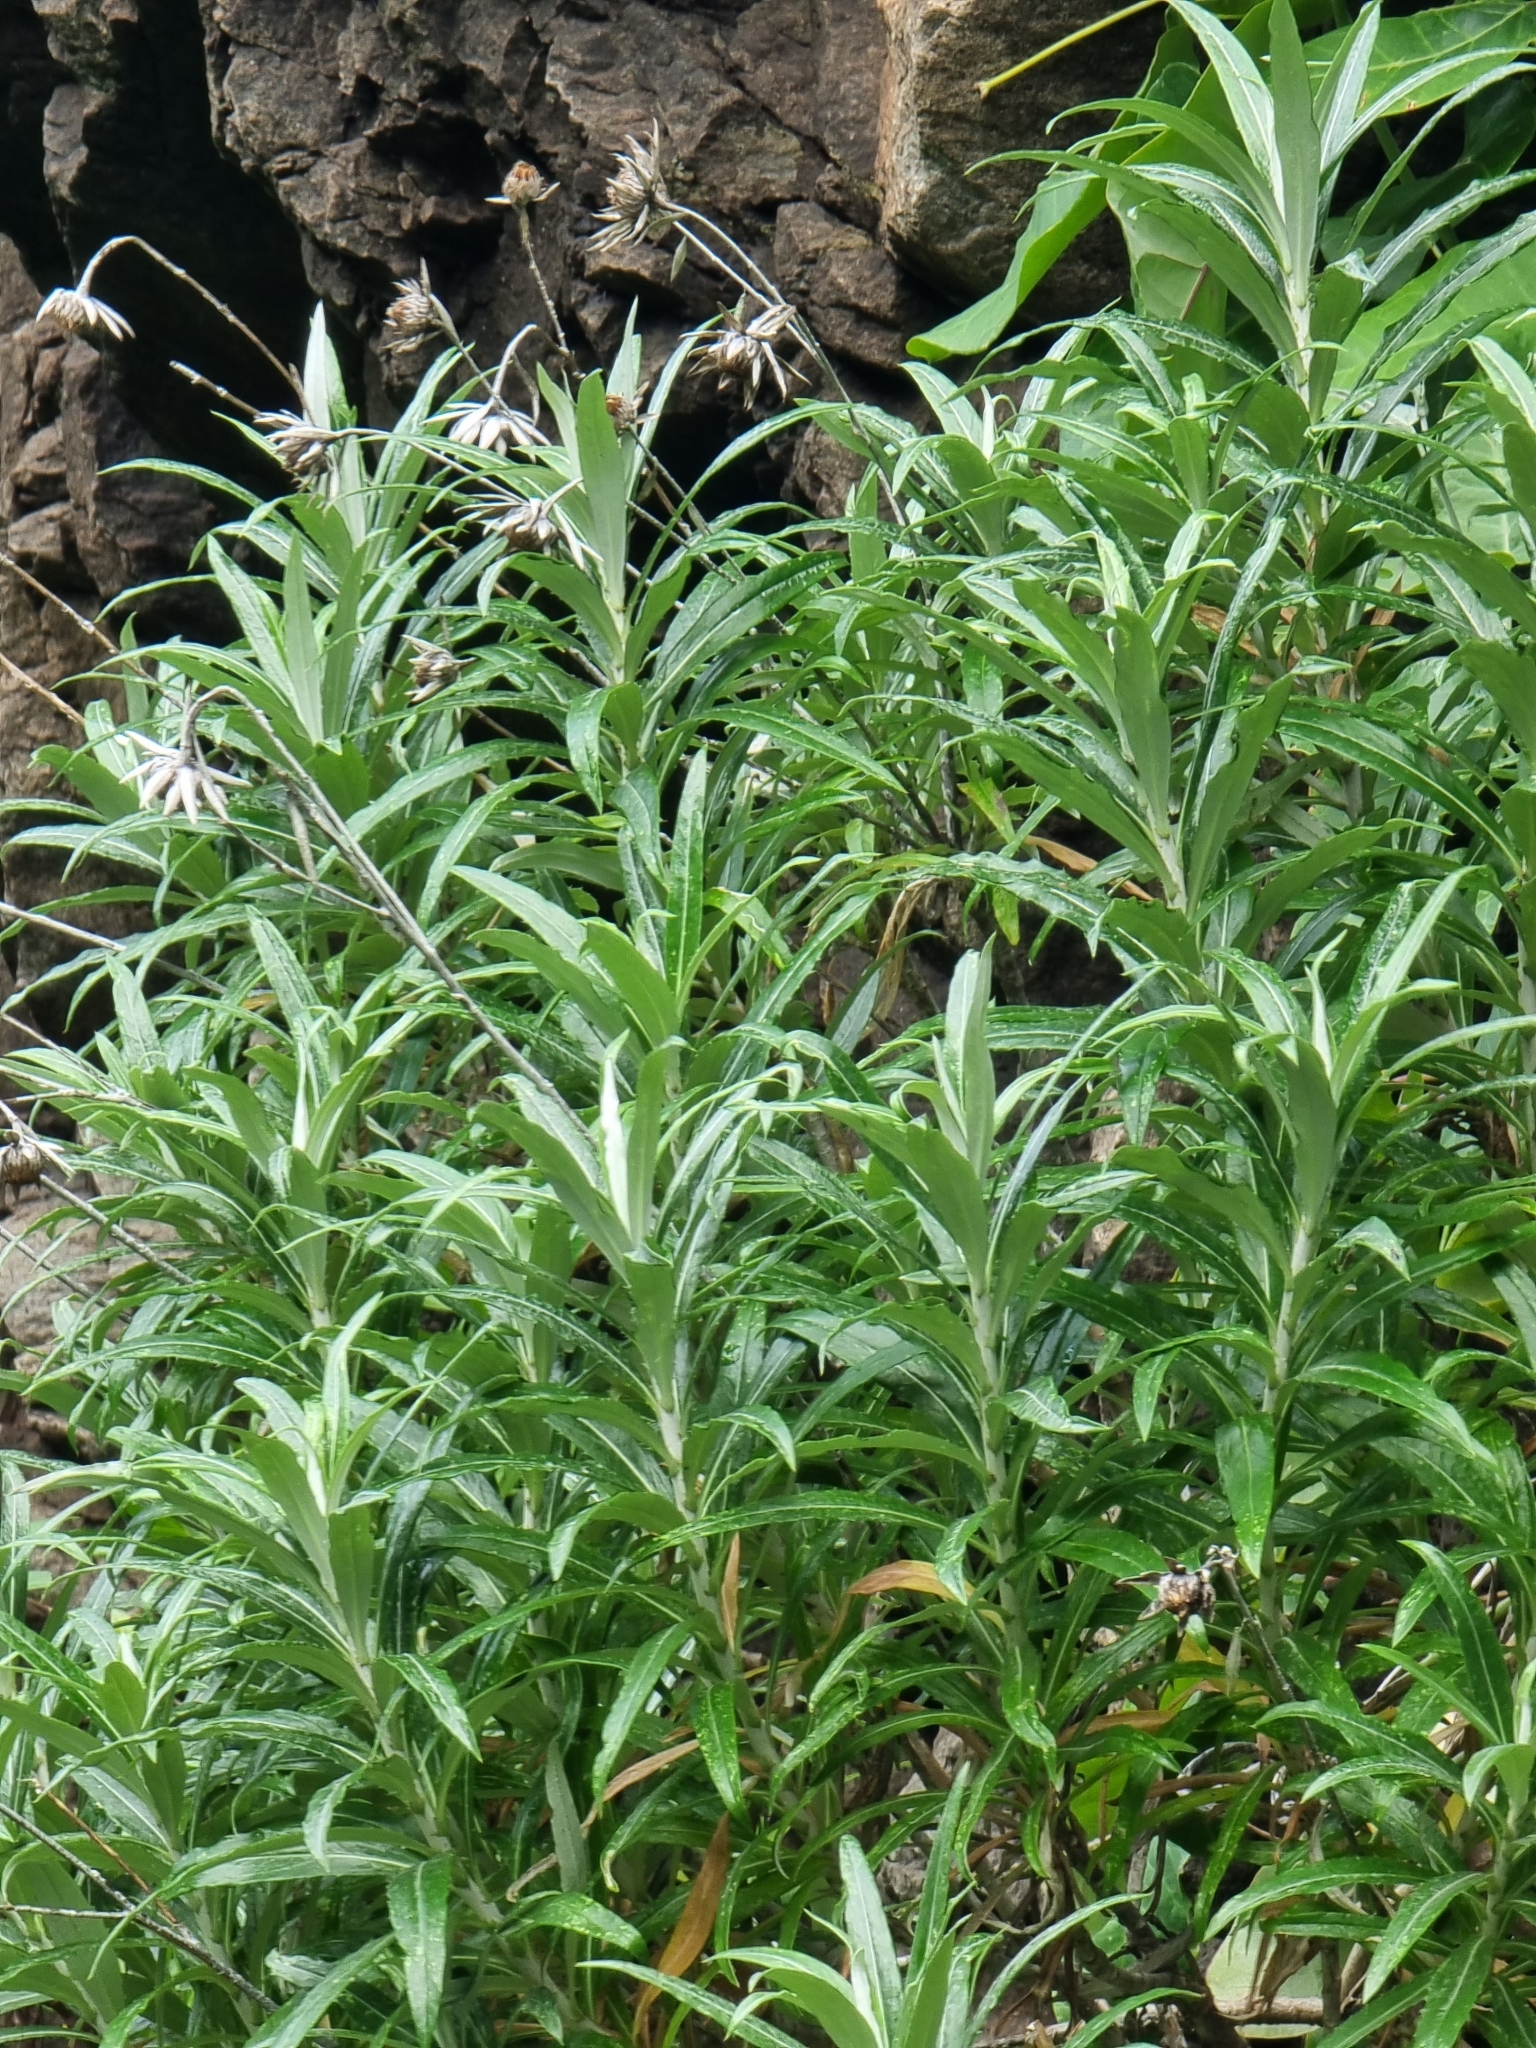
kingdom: Plantae
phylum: Tracheophyta
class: Magnoliopsida
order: Asterales
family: Asteraceae
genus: Carlina
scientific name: Carlina salicifolia
